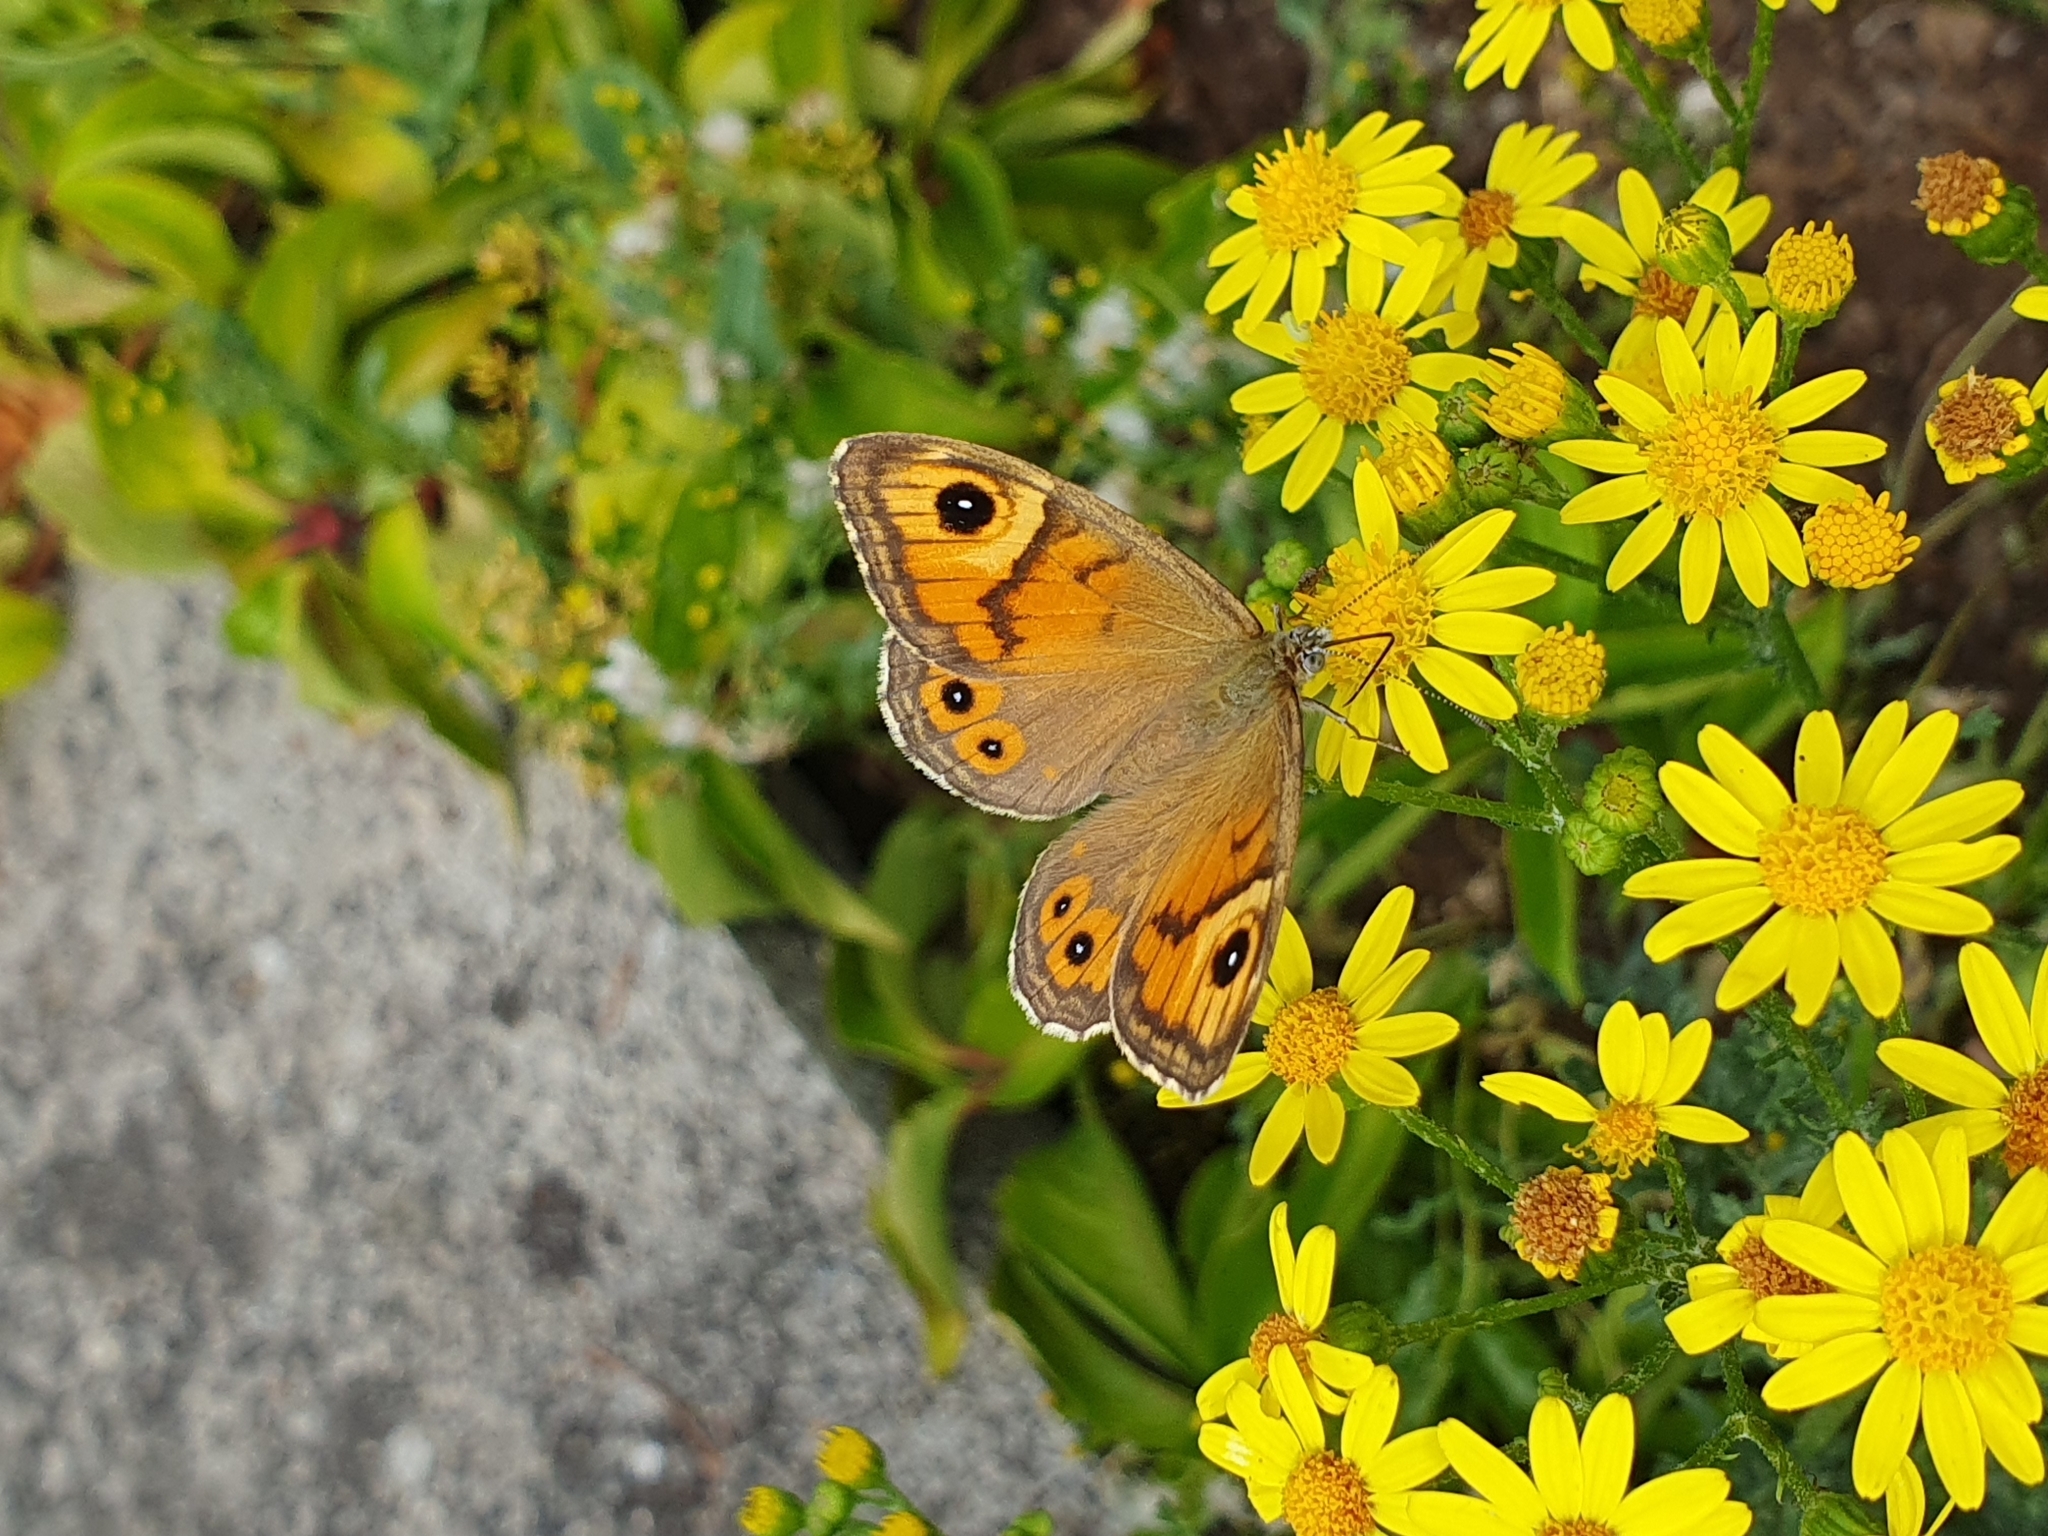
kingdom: Animalia
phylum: Arthropoda
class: Insecta
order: Lepidoptera
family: Nymphalidae
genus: Pararge
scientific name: Pararge Lasiommata maera
